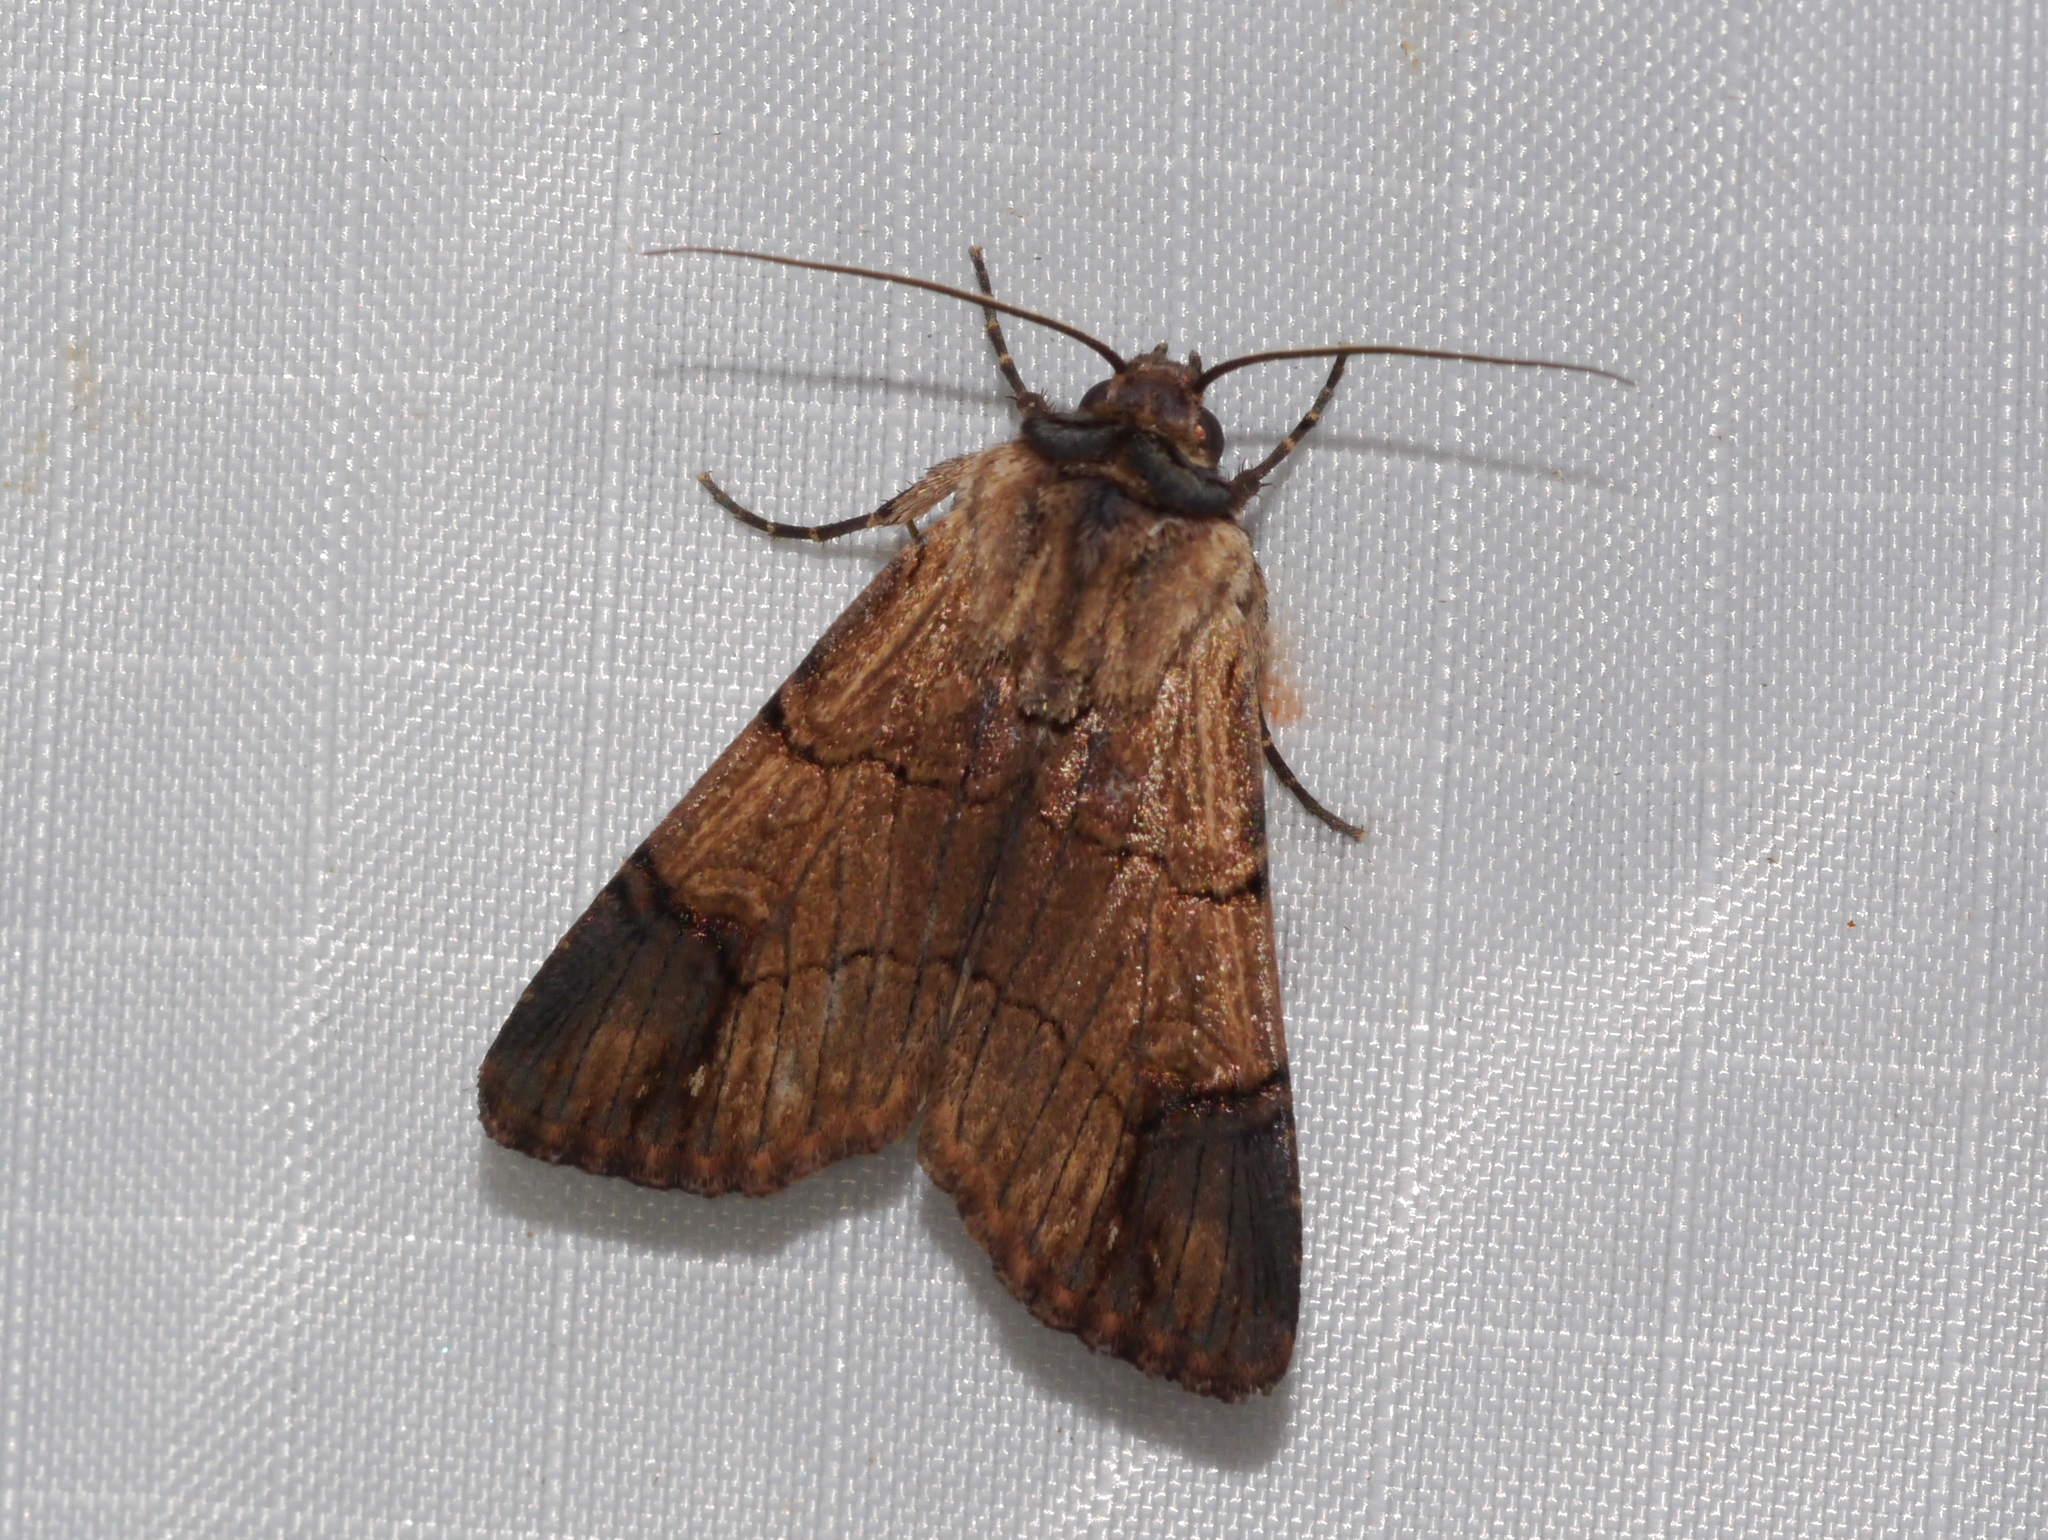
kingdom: Animalia
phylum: Arthropoda
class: Insecta
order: Lepidoptera
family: Noctuidae
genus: Dichagyris
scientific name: Dichagyris grotei
